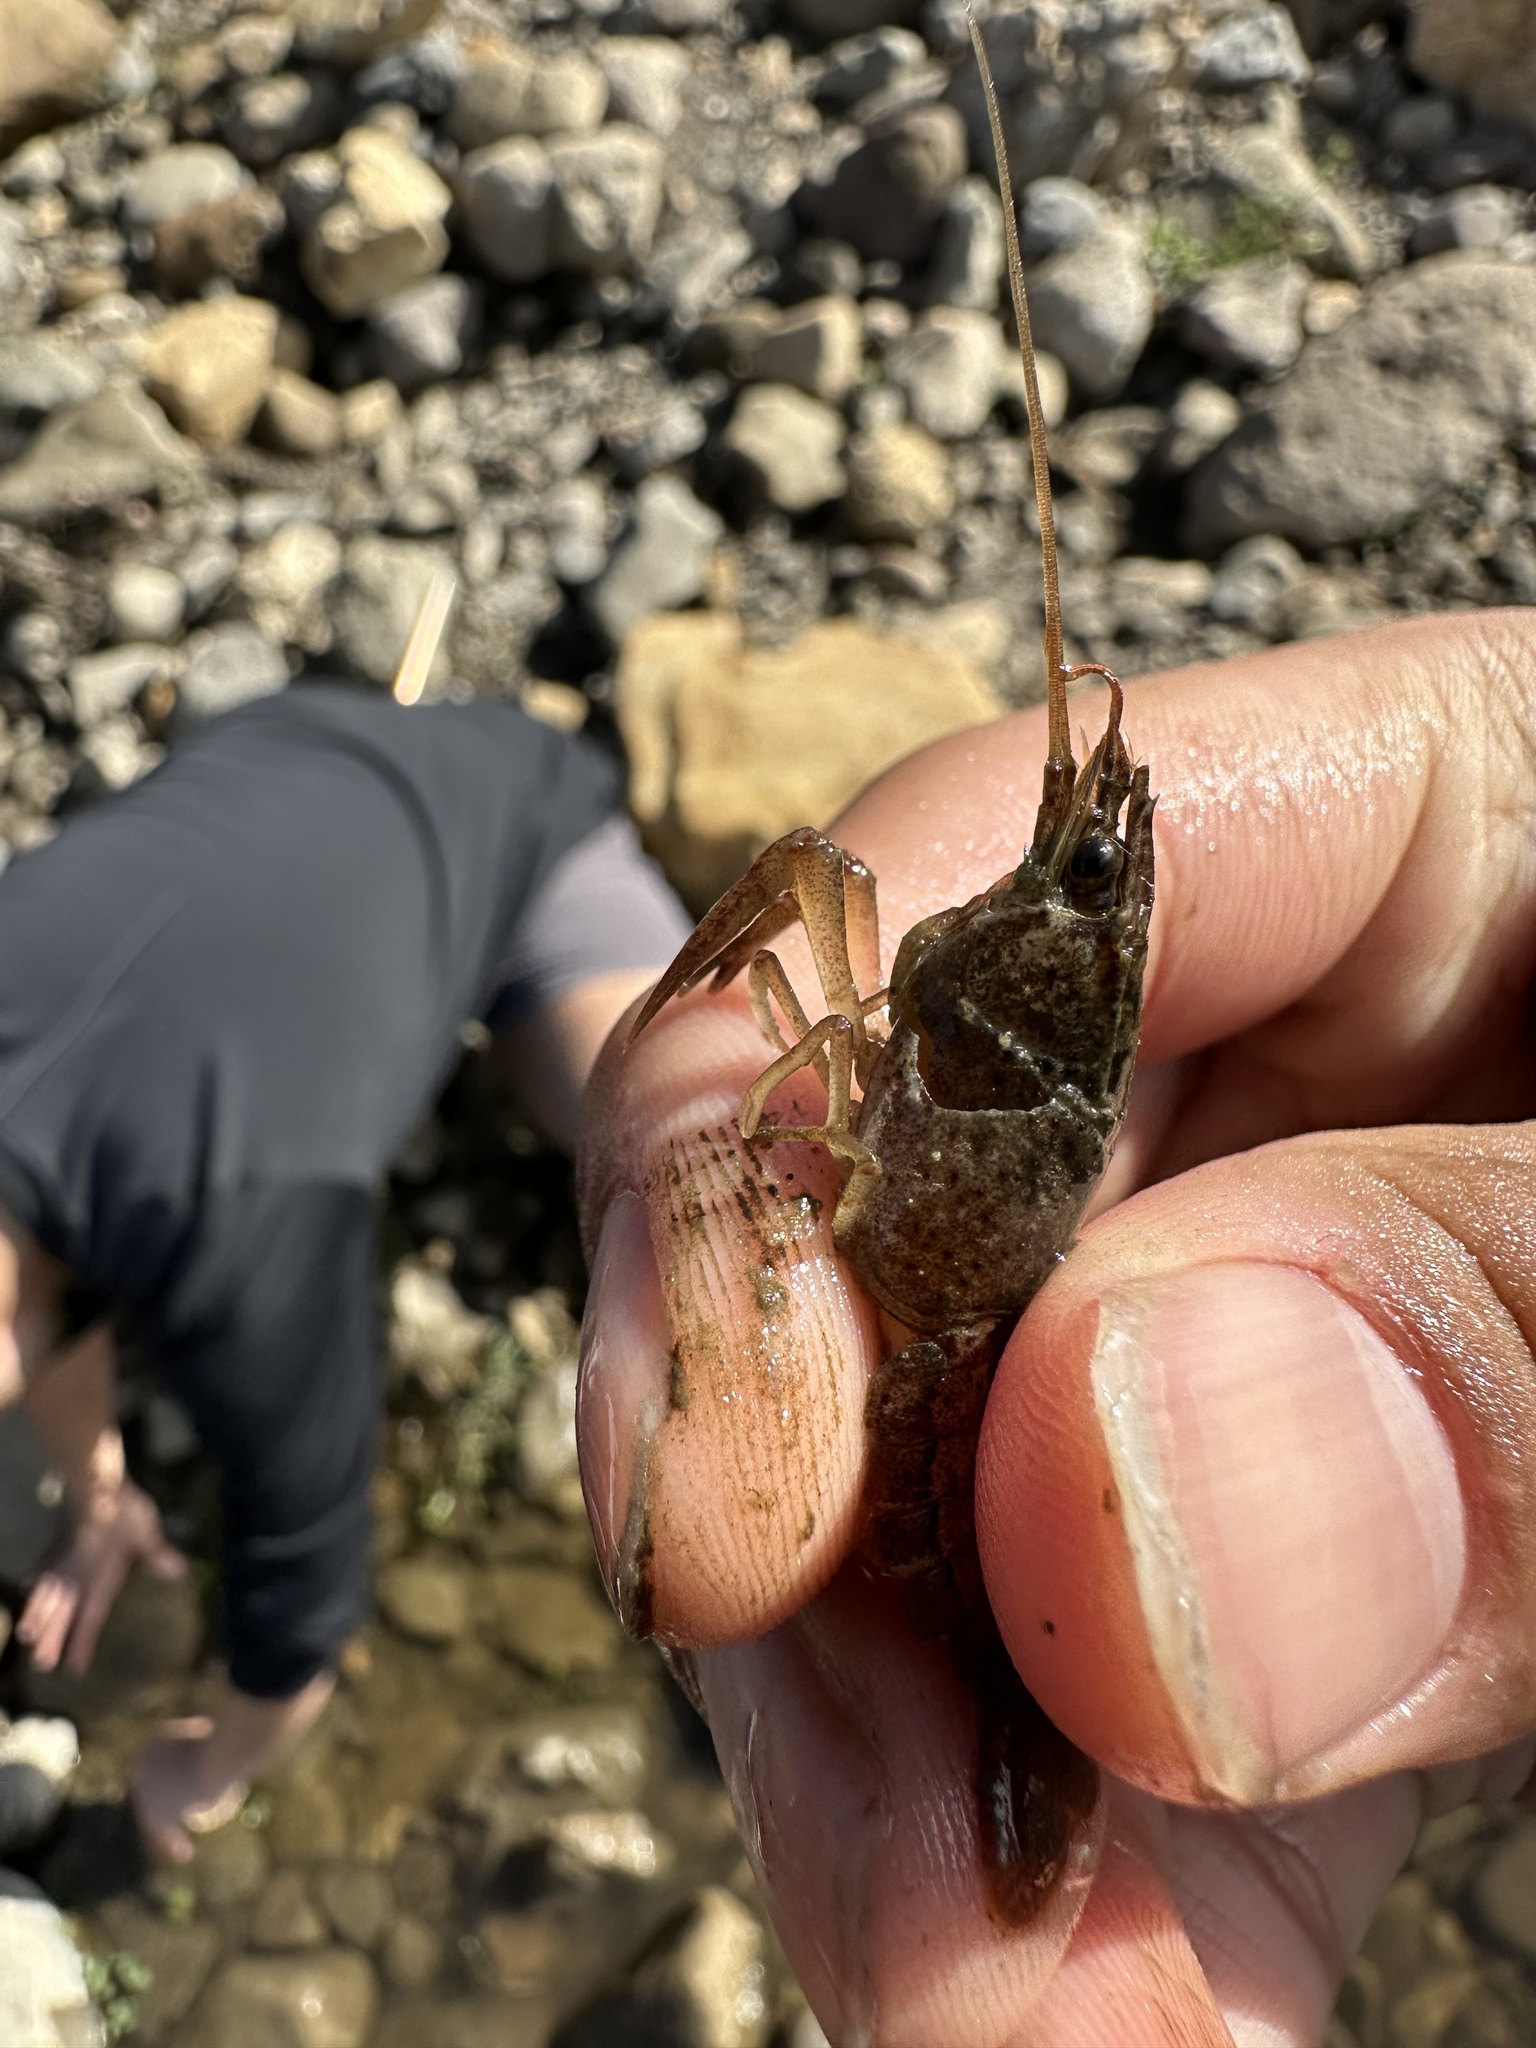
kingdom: Animalia
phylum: Arthropoda
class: Malacostraca
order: Decapoda
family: Cambaridae
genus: Procambarus
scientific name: Procambarus clarkii
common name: Red swamp crayfish
